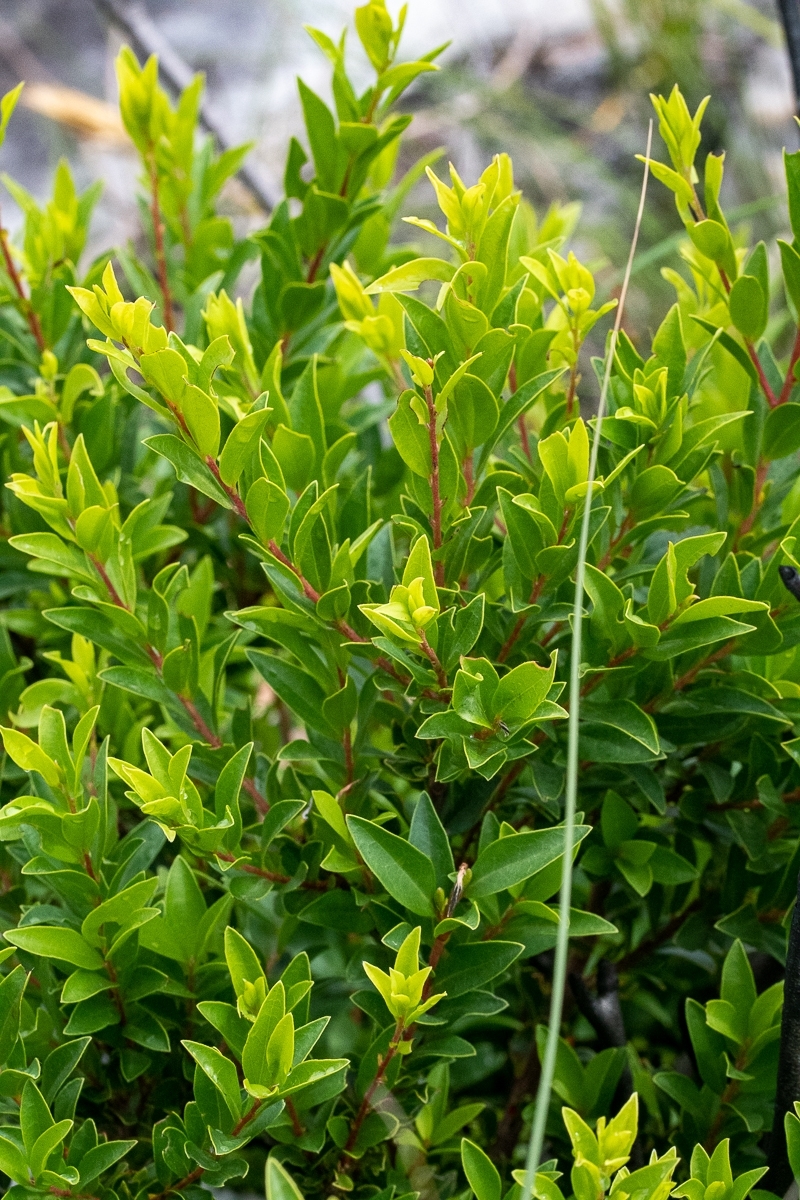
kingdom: Plantae
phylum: Tracheophyta
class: Magnoliopsida
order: Ericales
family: Ebenaceae
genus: Diospyros
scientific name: Diospyros glabra
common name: Fynbos star apple
